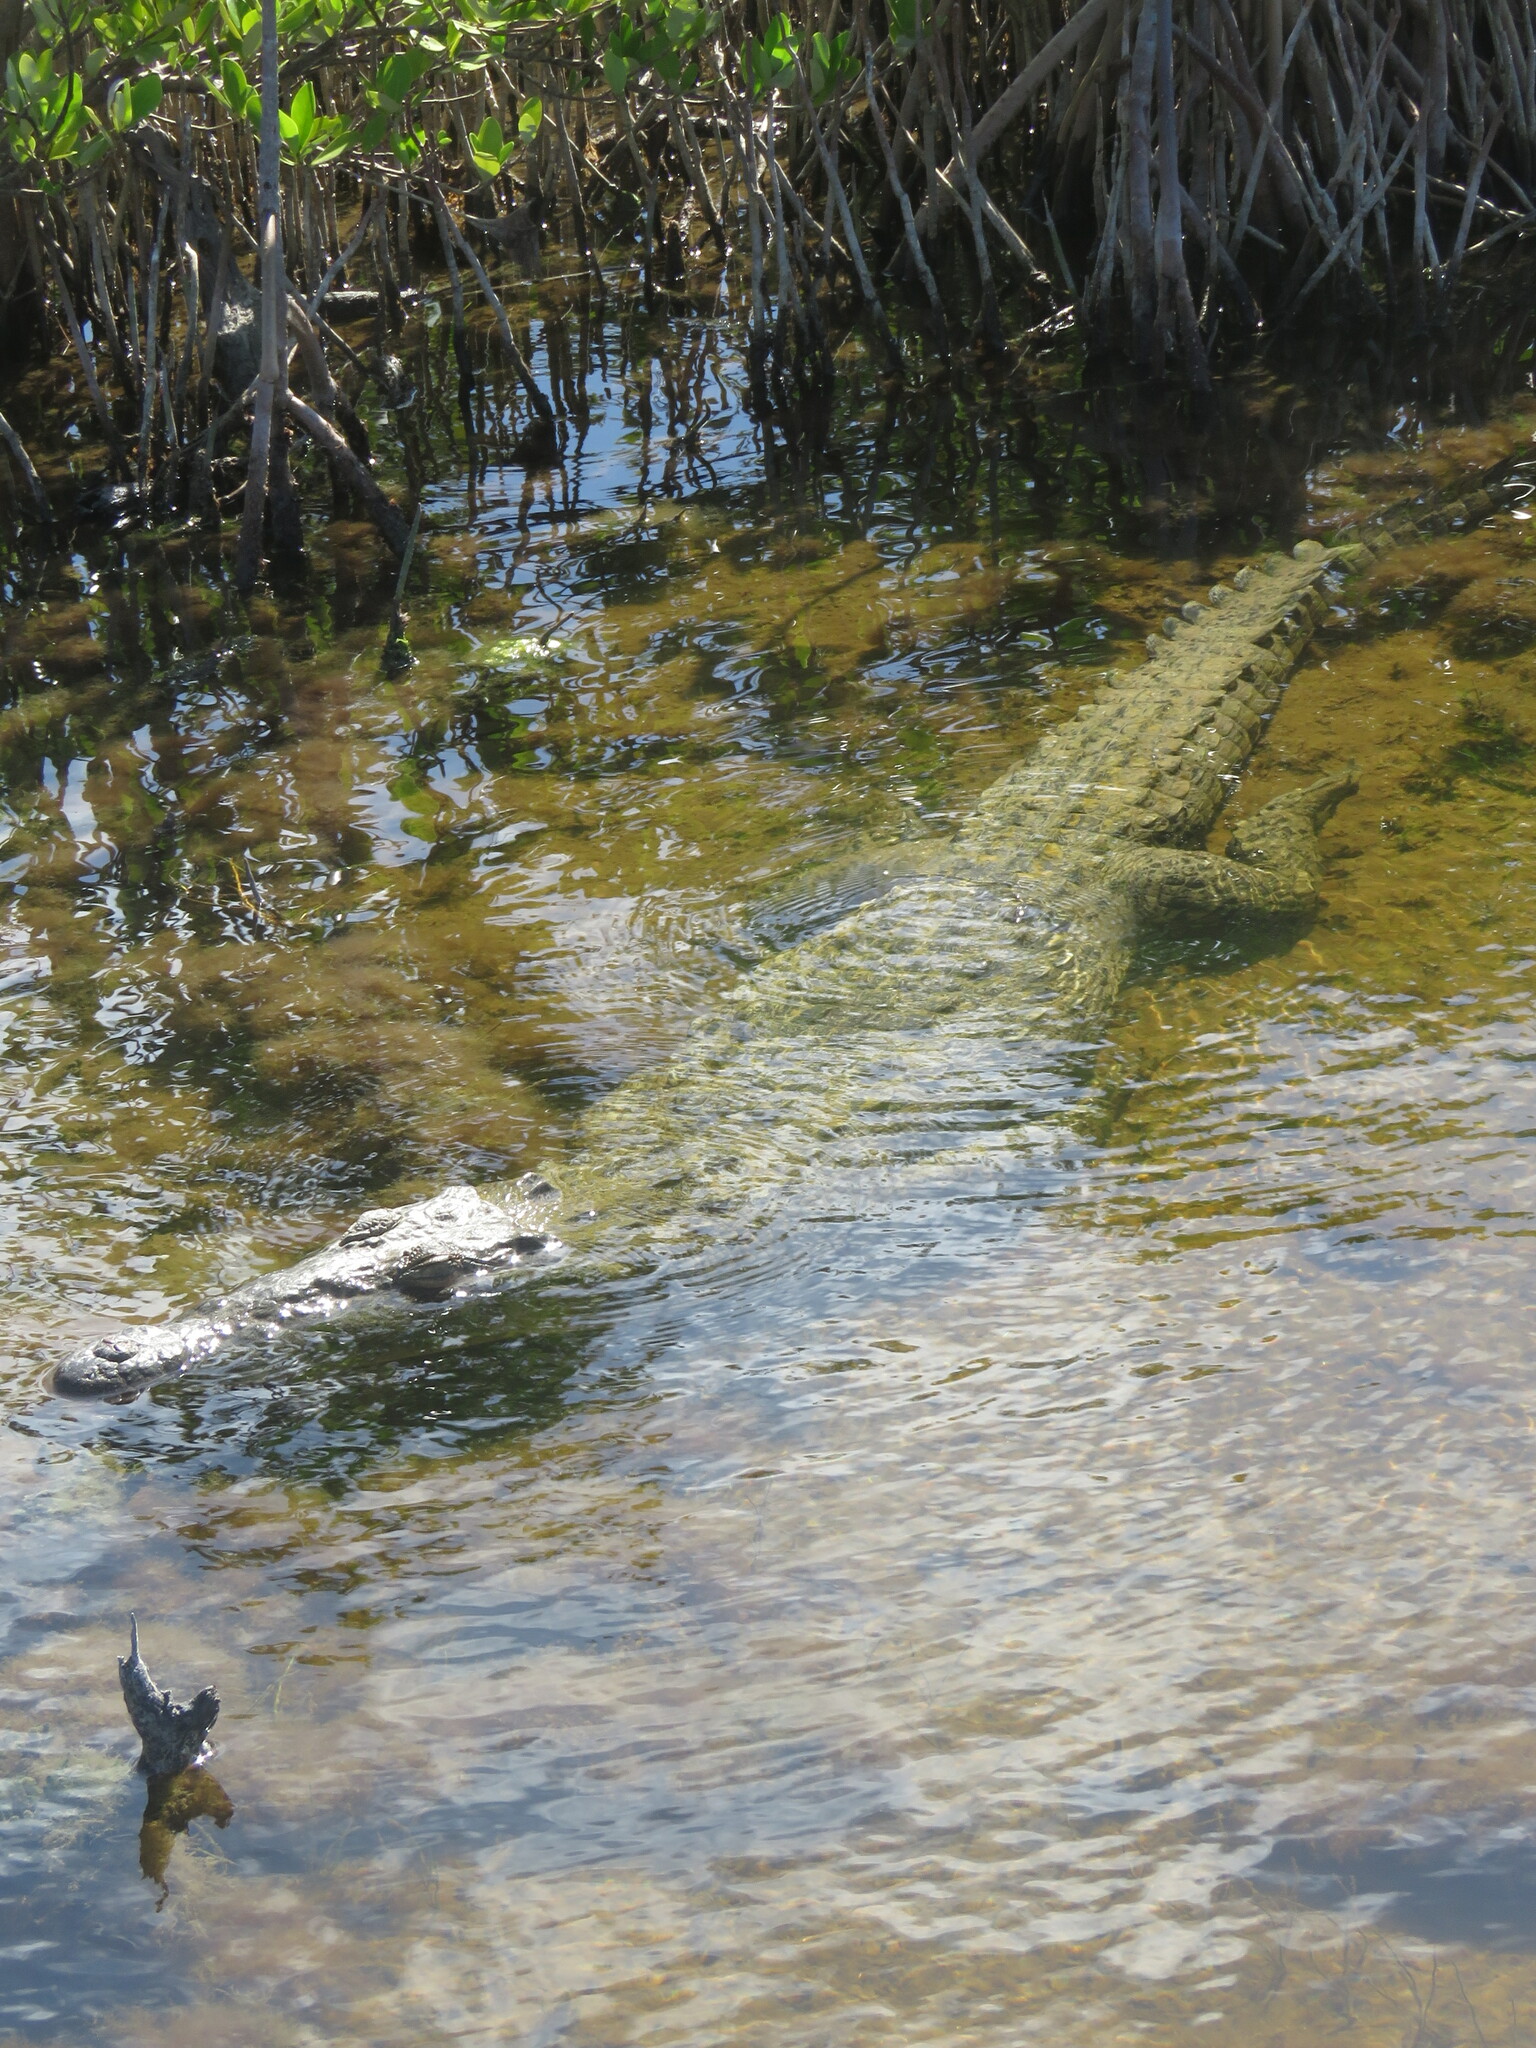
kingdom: Animalia
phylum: Chordata
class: Crocodylia
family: Crocodylidae
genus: Crocodylus
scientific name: Crocodylus acutus
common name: American crocodile
